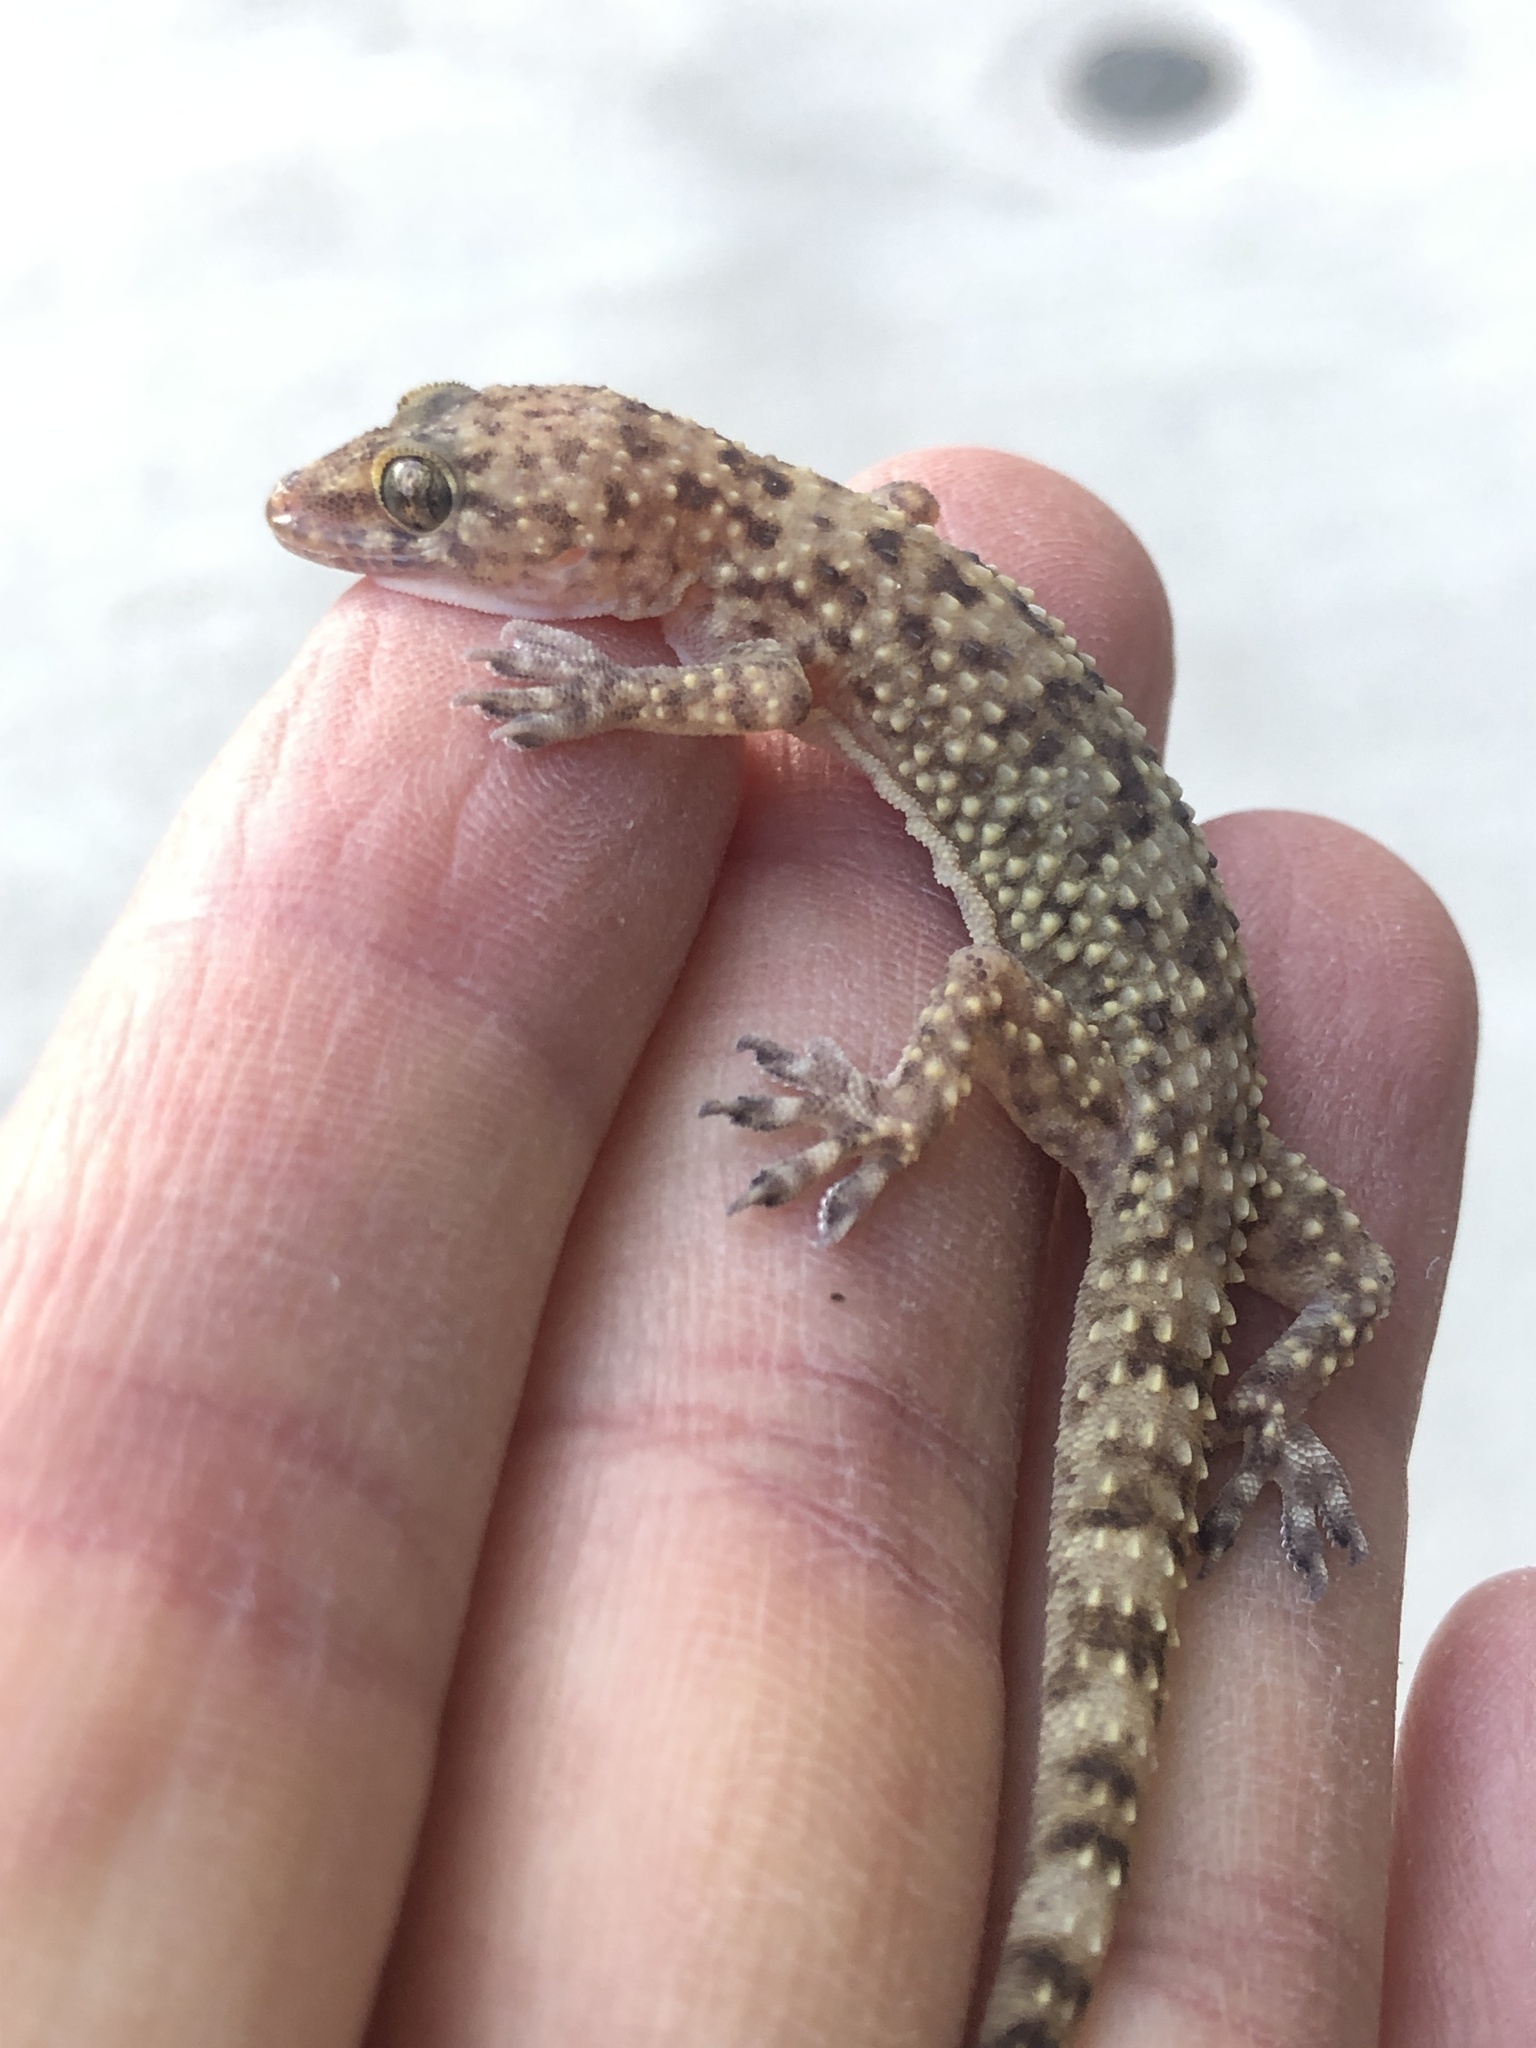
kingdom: Animalia
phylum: Chordata
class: Squamata
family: Gekkonidae
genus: Hemidactylus
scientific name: Hemidactylus turcicus
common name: Turkish gecko
